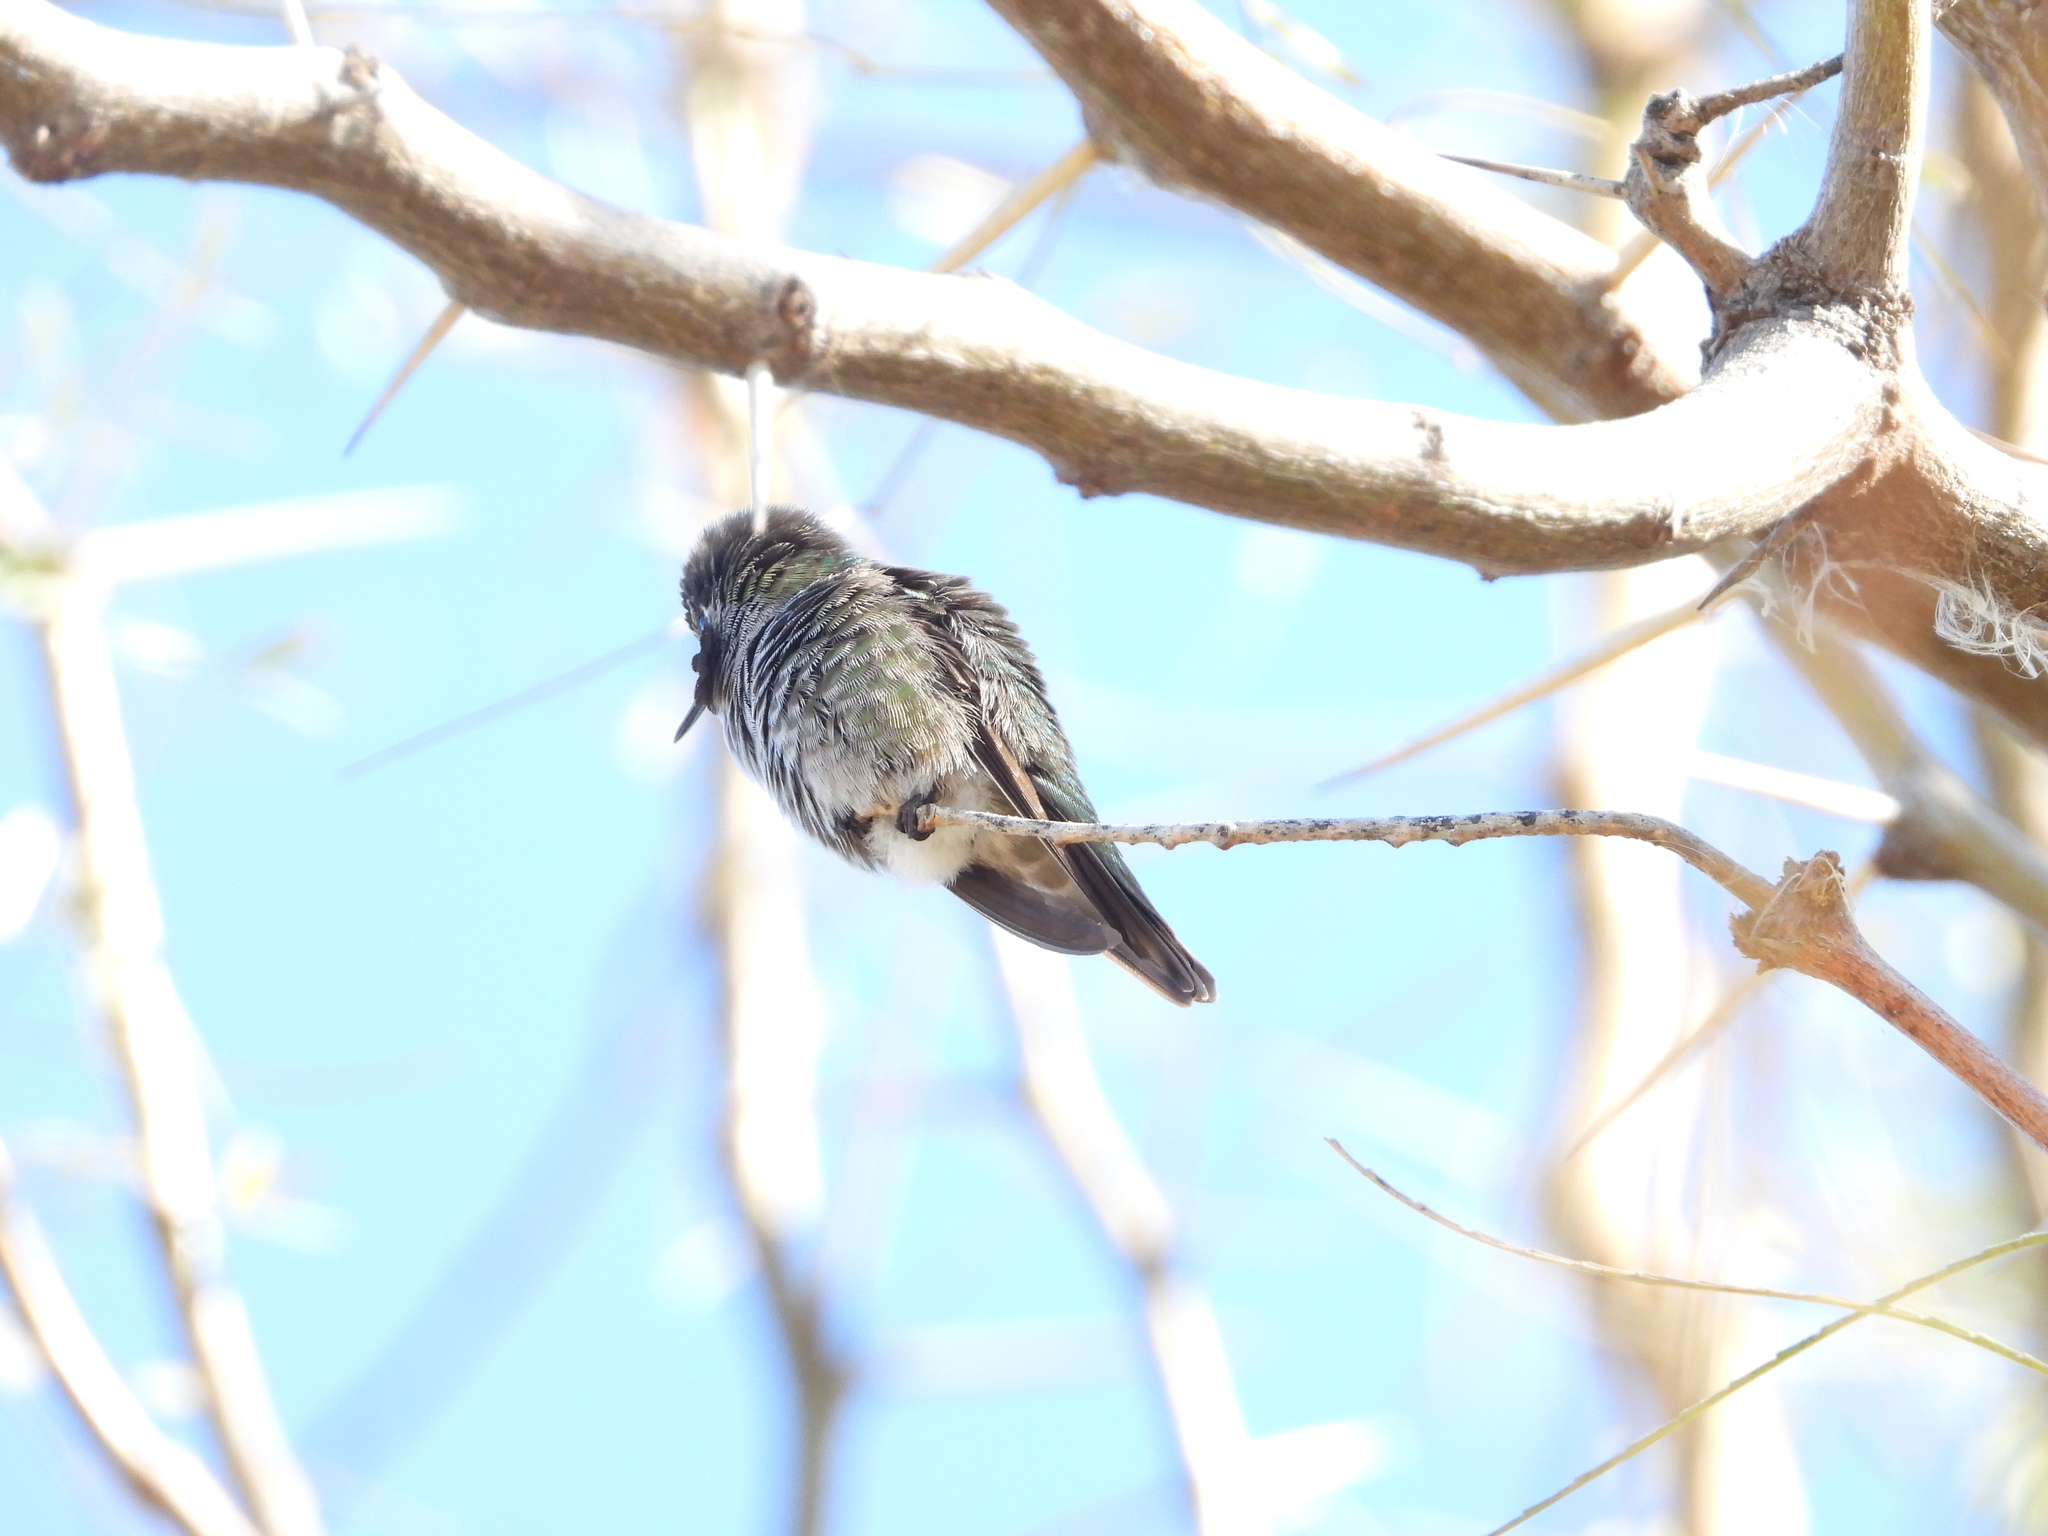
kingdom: Animalia
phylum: Chordata
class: Aves
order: Apodiformes
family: Trochilidae
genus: Calypte
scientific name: Calypte anna
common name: Anna's hummingbird
